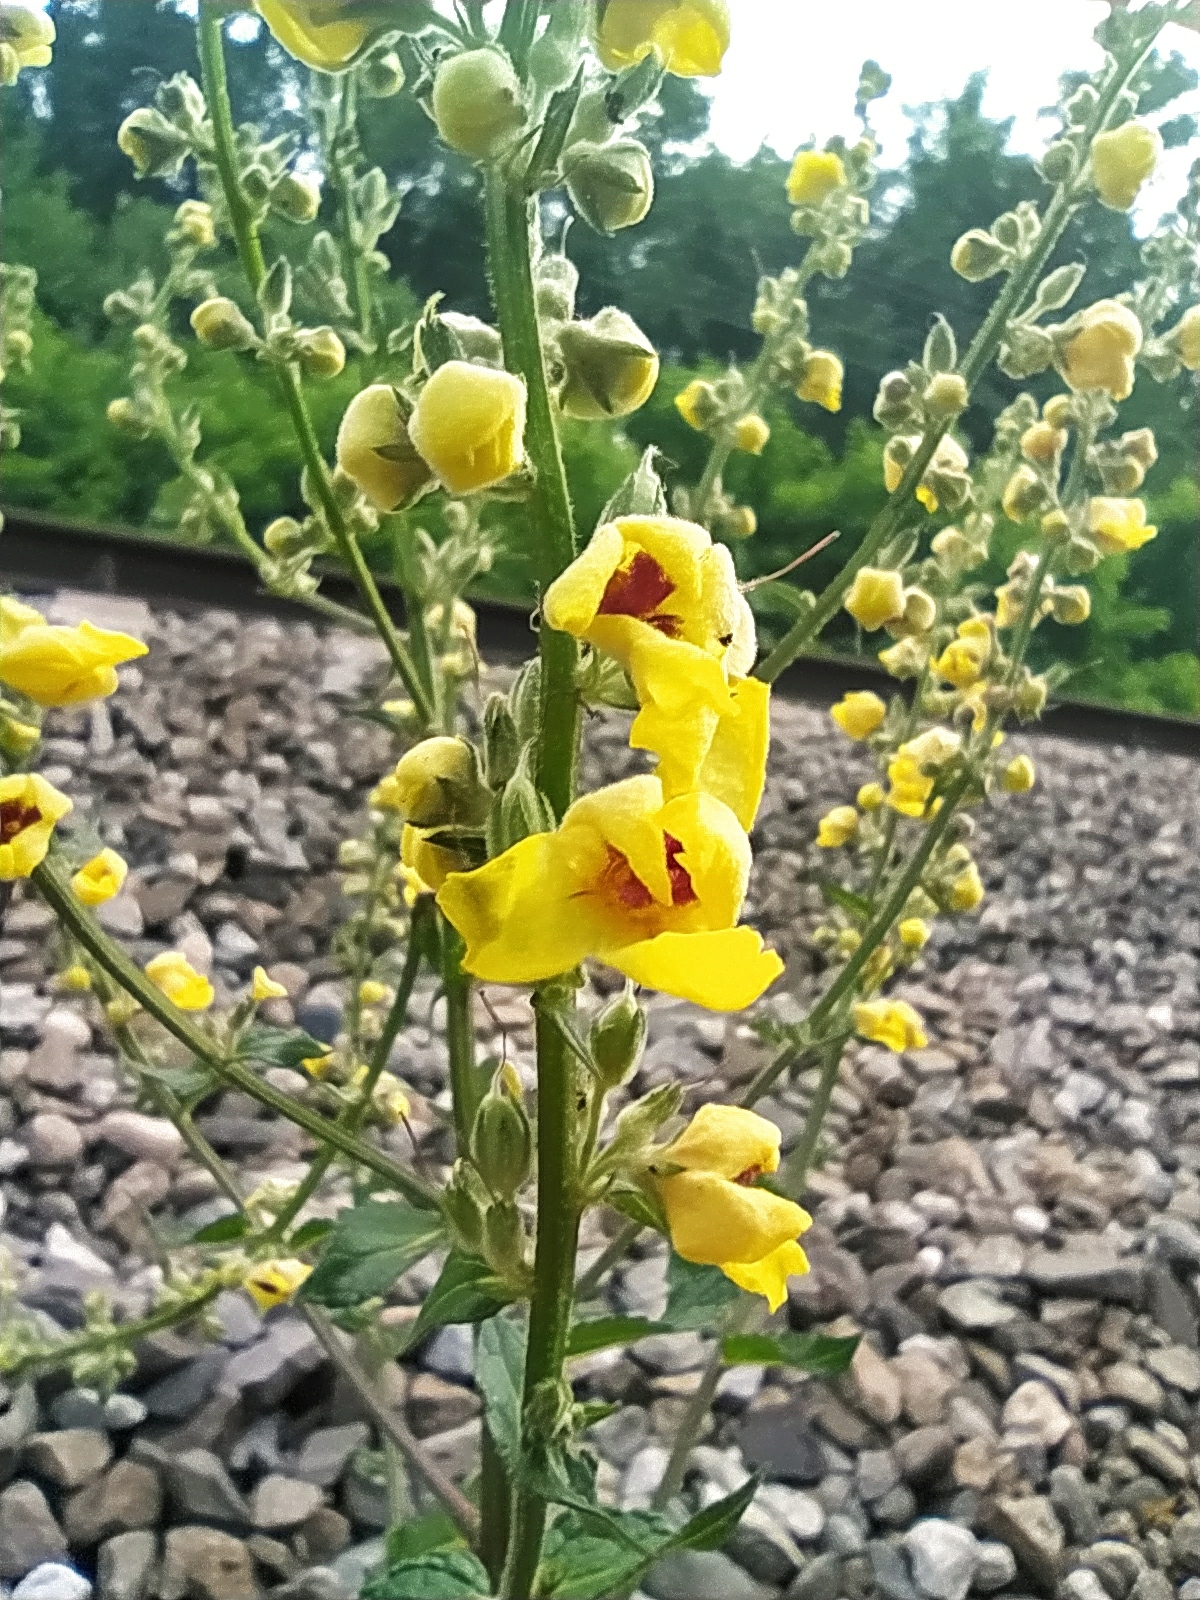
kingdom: Plantae
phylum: Tracheophyta
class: Magnoliopsida
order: Lamiales
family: Scrophulariaceae
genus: Verbascum
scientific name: Verbascum chaixii
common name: Nettle-leaved mullein
